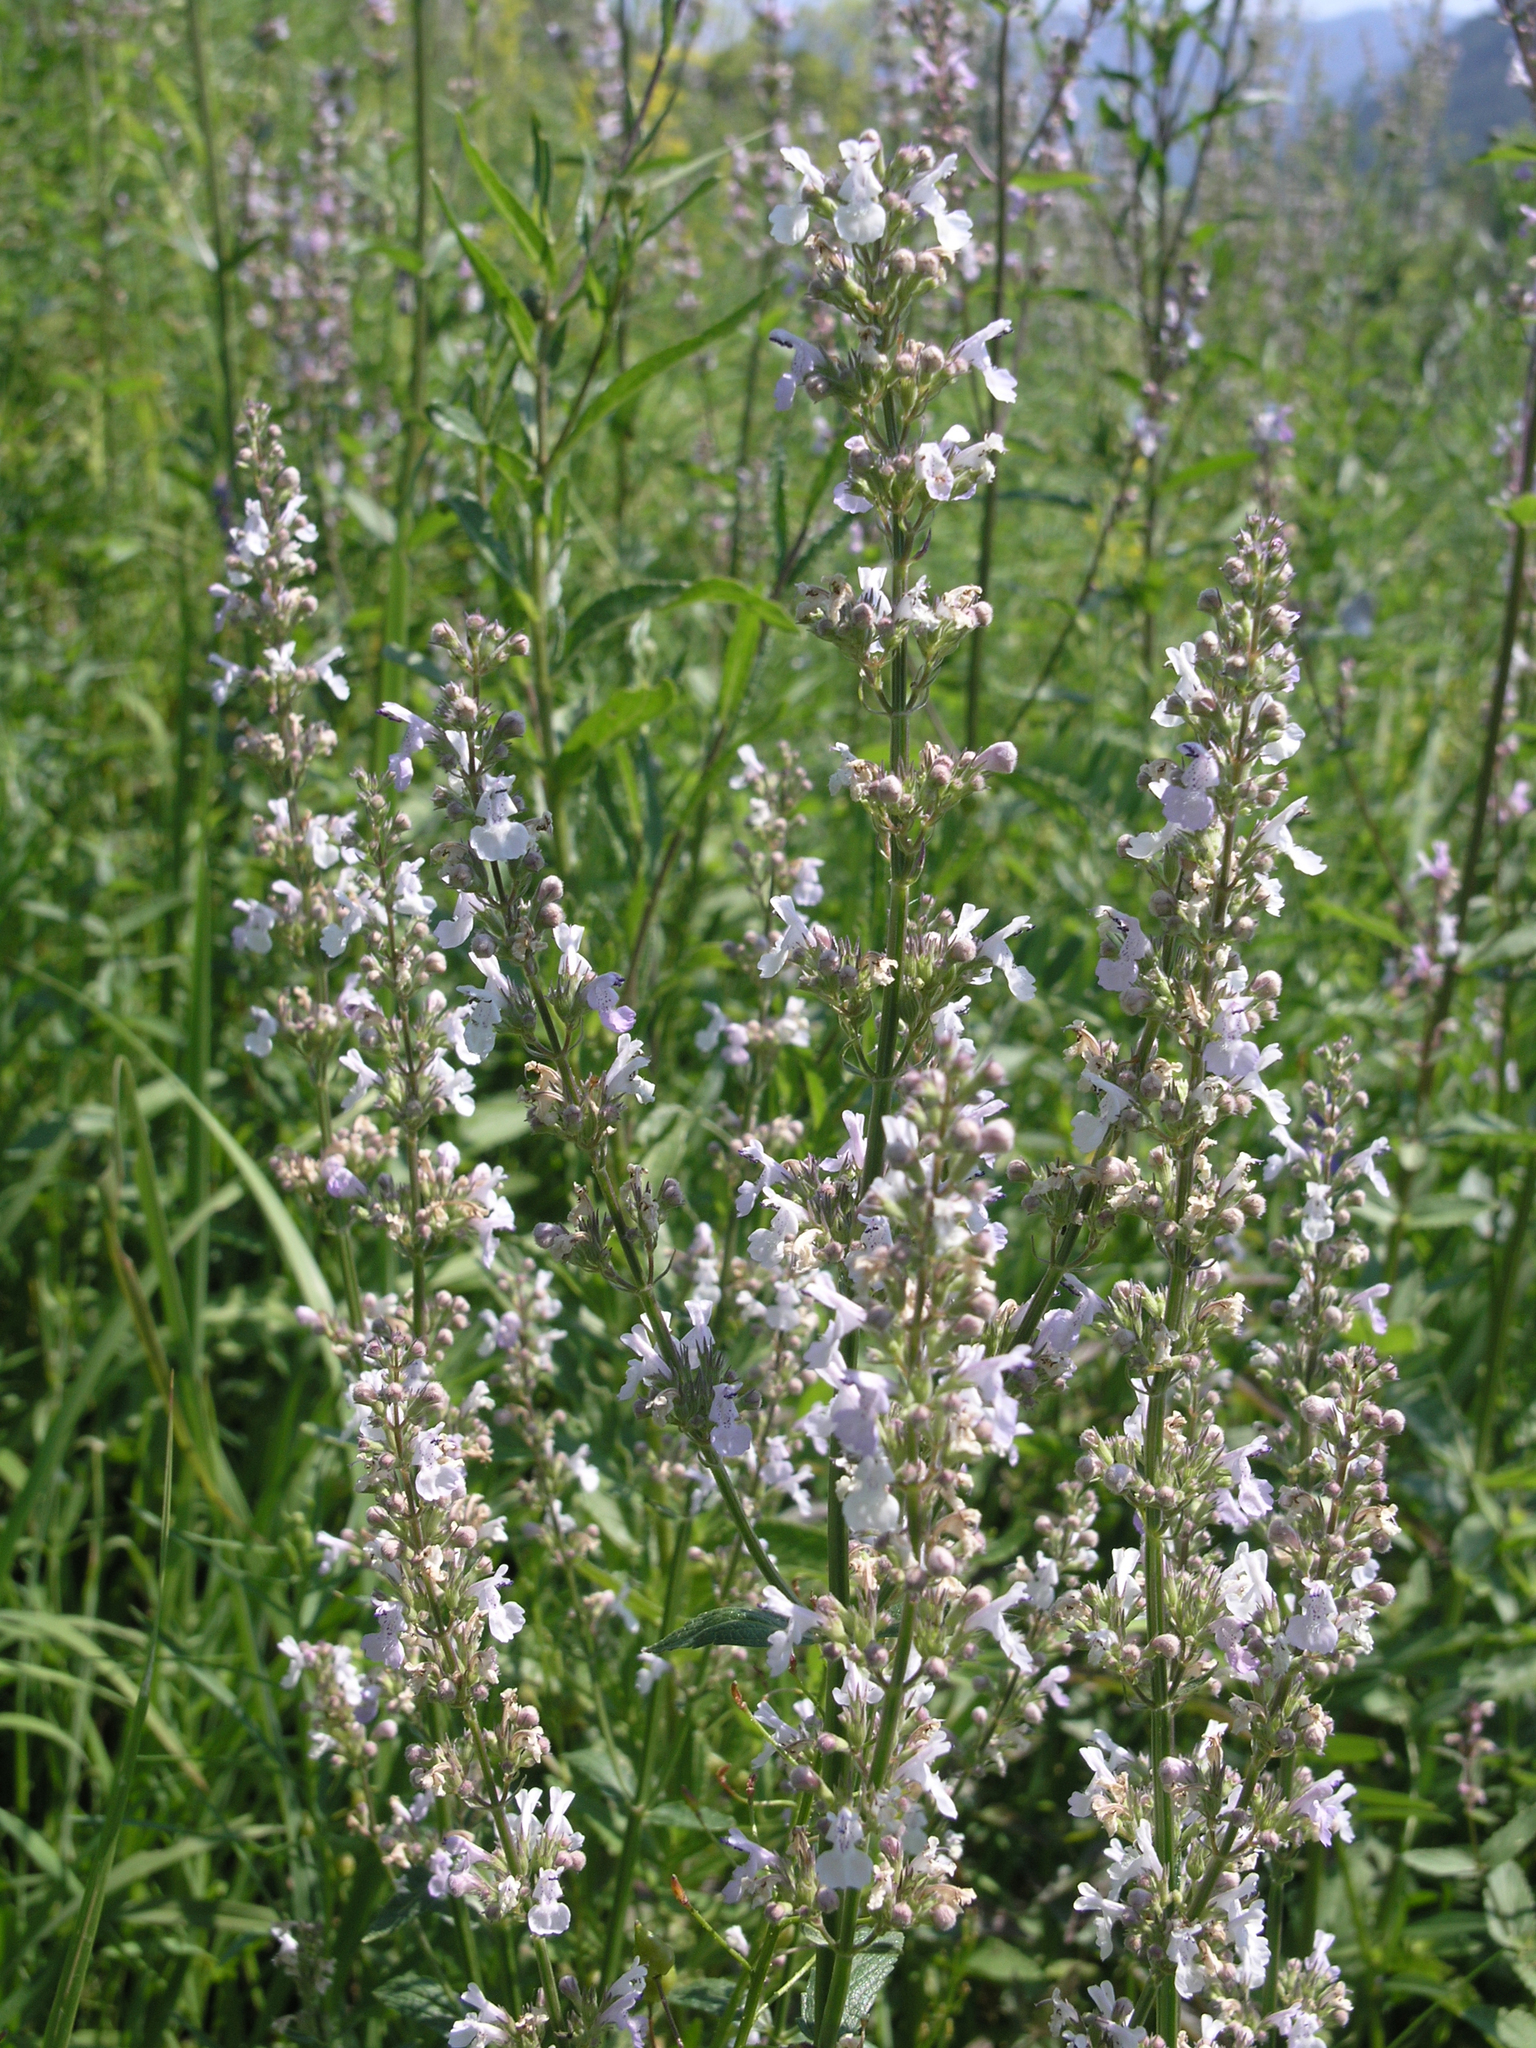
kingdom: Plantae
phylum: Tracheophyta
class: Magnoliopsida
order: Lamiales
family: Lamiaceae
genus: Nepeta
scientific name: Nepeta nuda
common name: Hairless catmint
